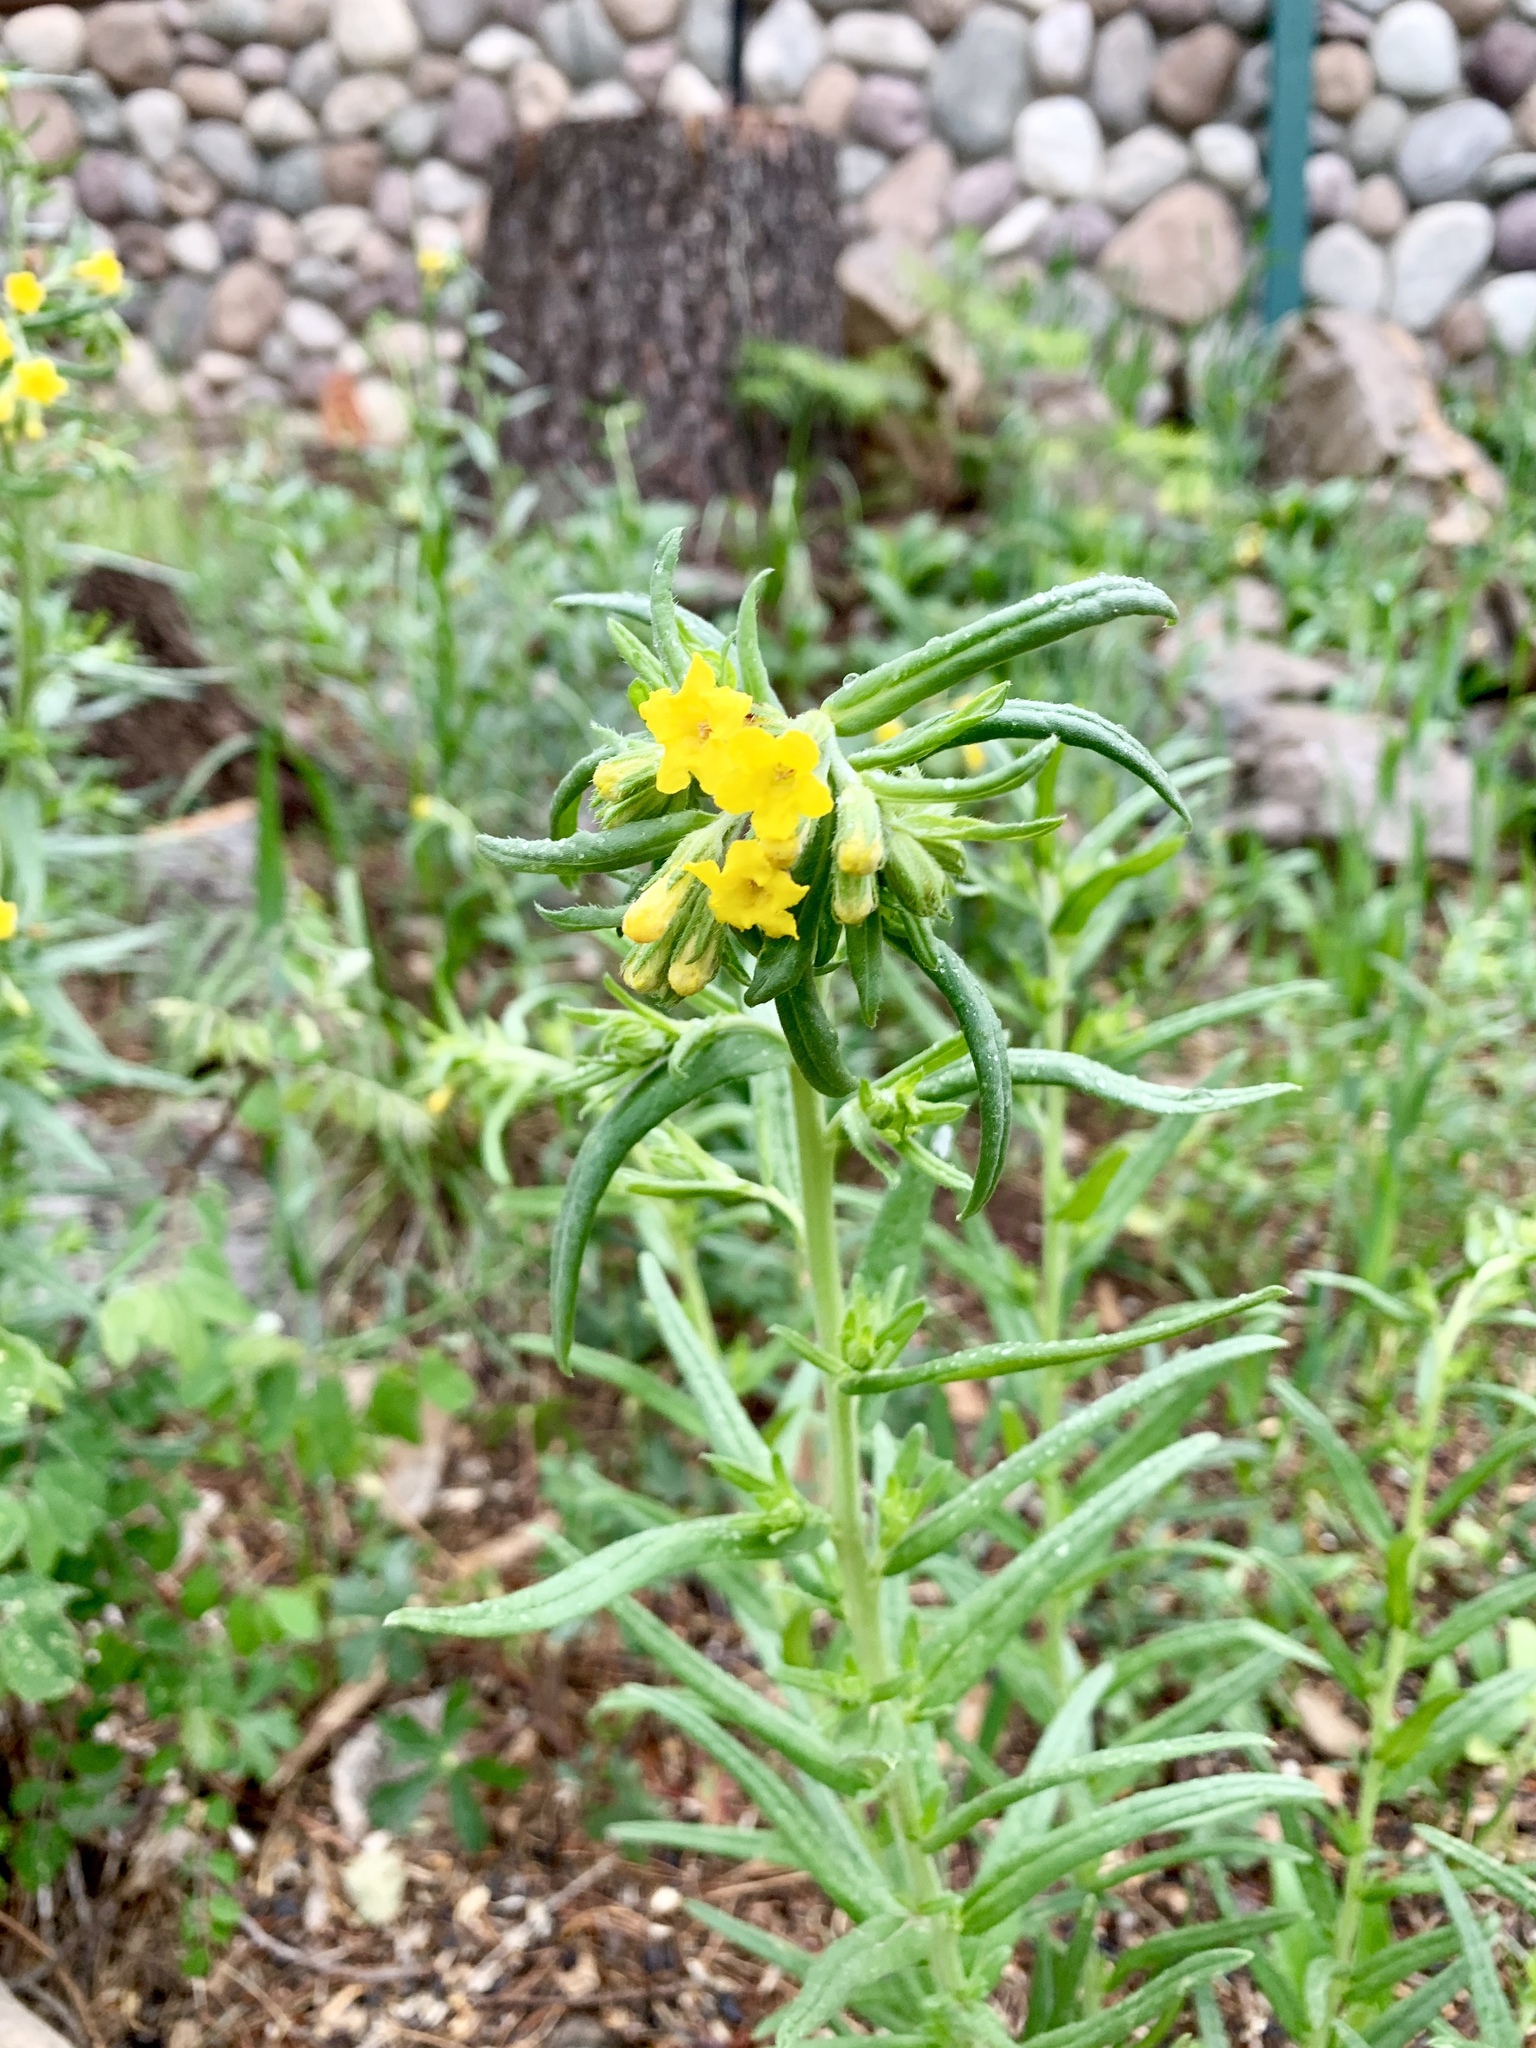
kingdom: Plantae
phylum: Tracheophyta
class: Magnoliopsida
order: Boraginales
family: Boraginaceae
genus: Lithospermum
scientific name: Lithospermum multiflorum
